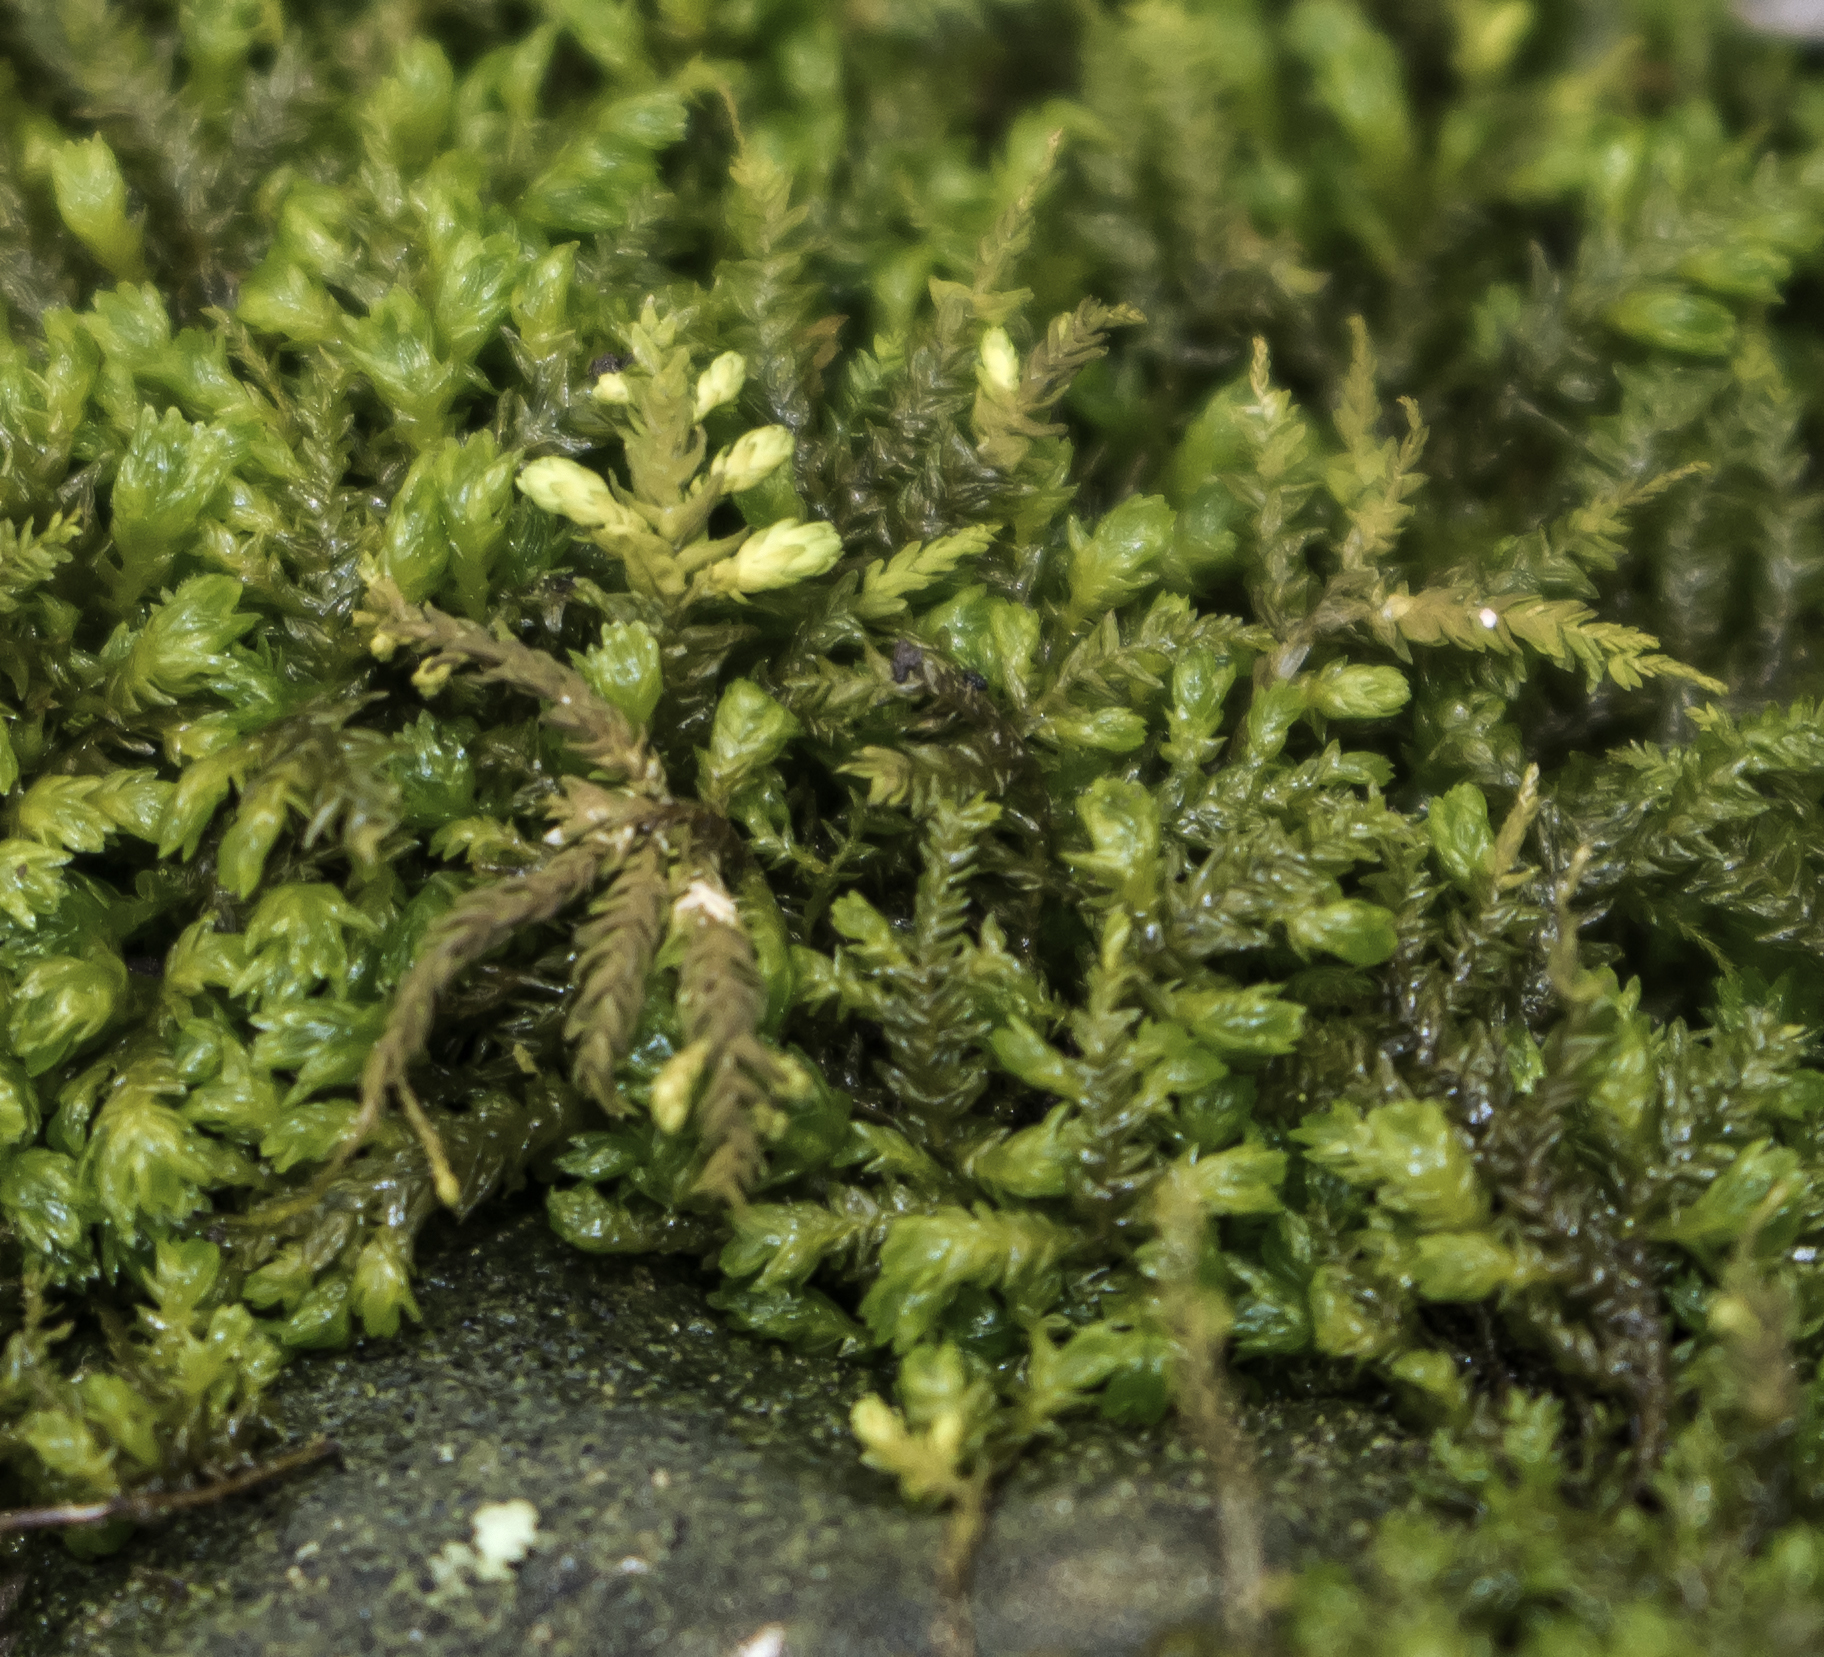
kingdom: Plantae
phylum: Bryophyta
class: Bryopsida
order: Hypnales
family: Neckeraceae
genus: Pseudanomodon
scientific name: Pseudanomodon attenuatus
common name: Tree-skirt moss
